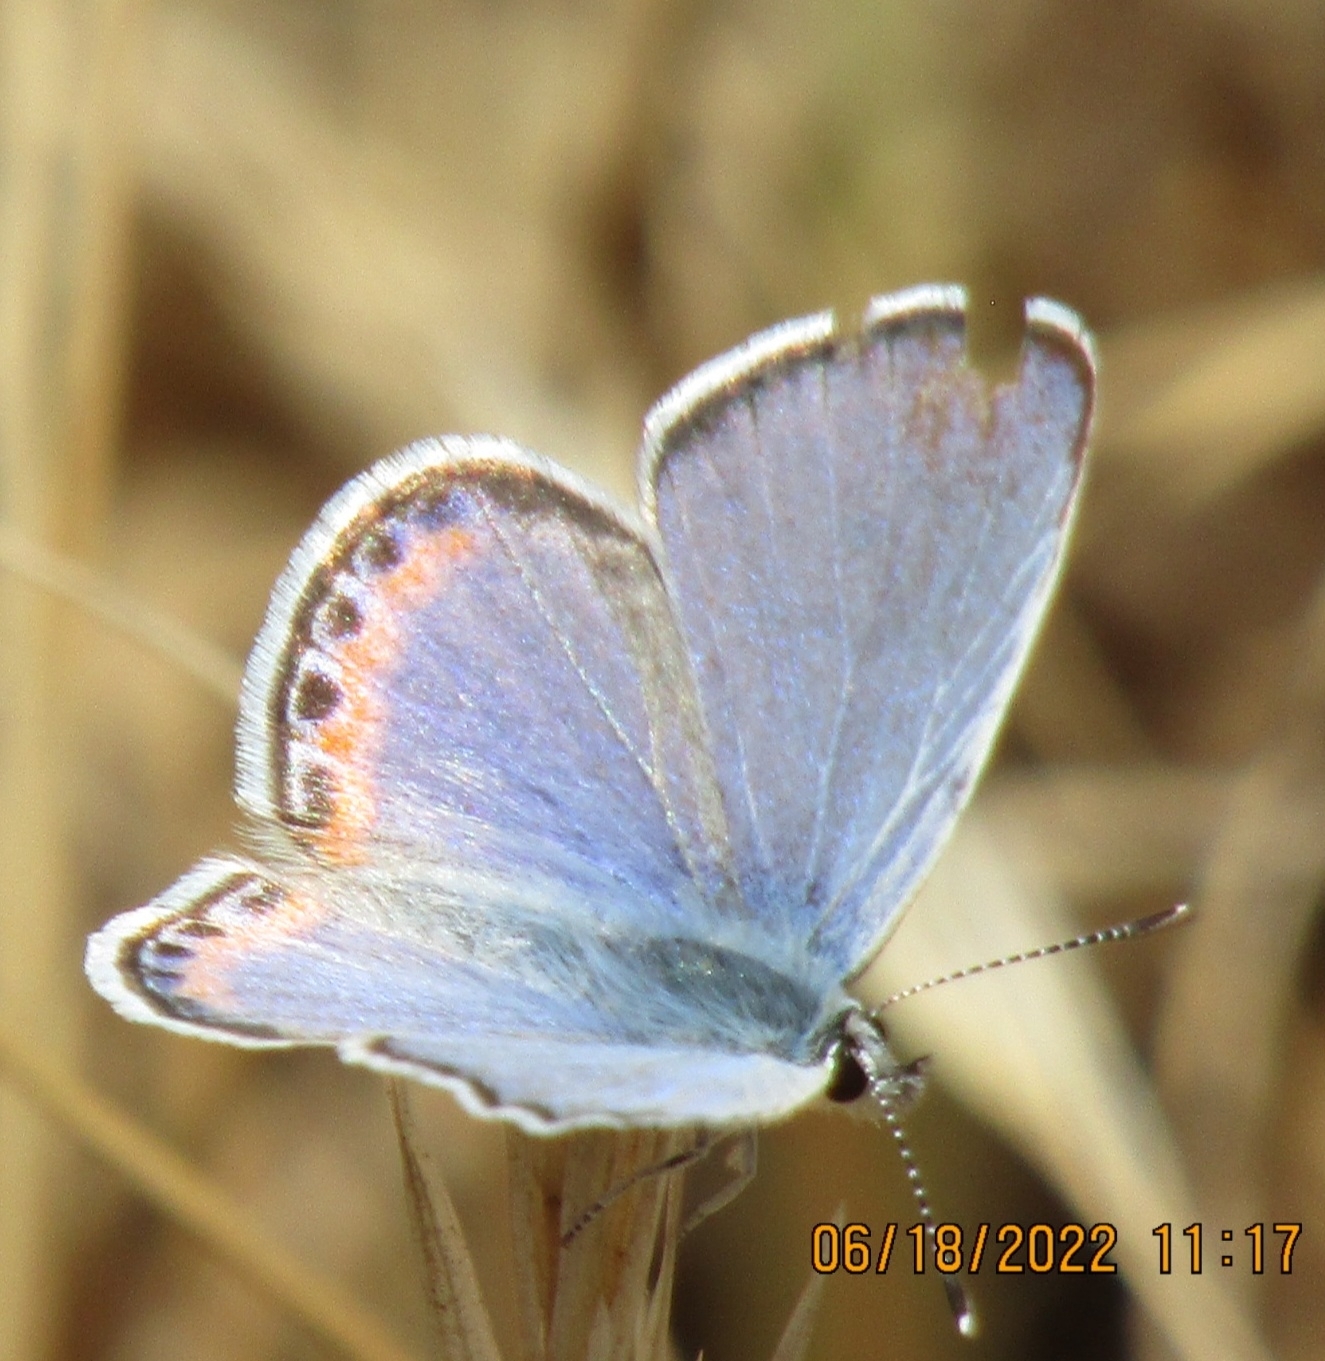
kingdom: Animalia
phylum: Arthropoda
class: Insecta
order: Lepidoptera
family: Lycaenidae
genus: Icaricia
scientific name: Icaricia acmon
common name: Acmon blue
